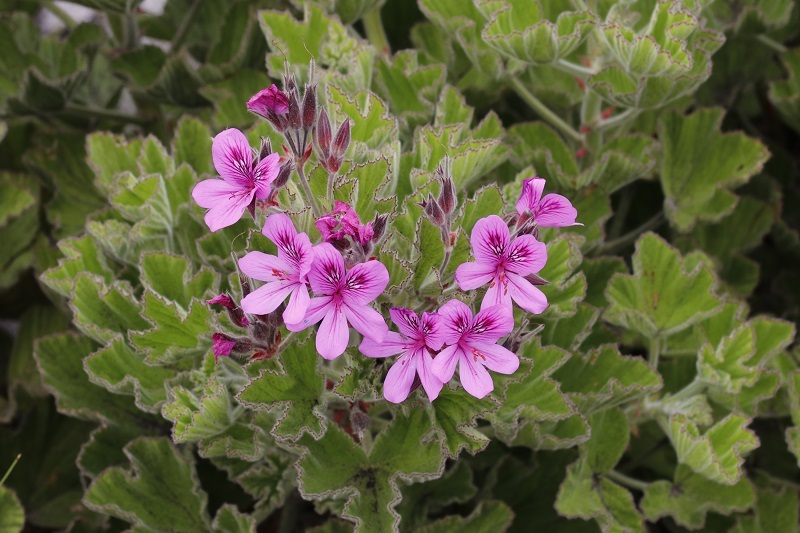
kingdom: Plantae
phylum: Tracheophyta
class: Magnoliopsida
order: Geraniales
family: Geraniaceae
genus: Pelargonium
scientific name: Pelargonium cucullatum
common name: Tree pelargonium
